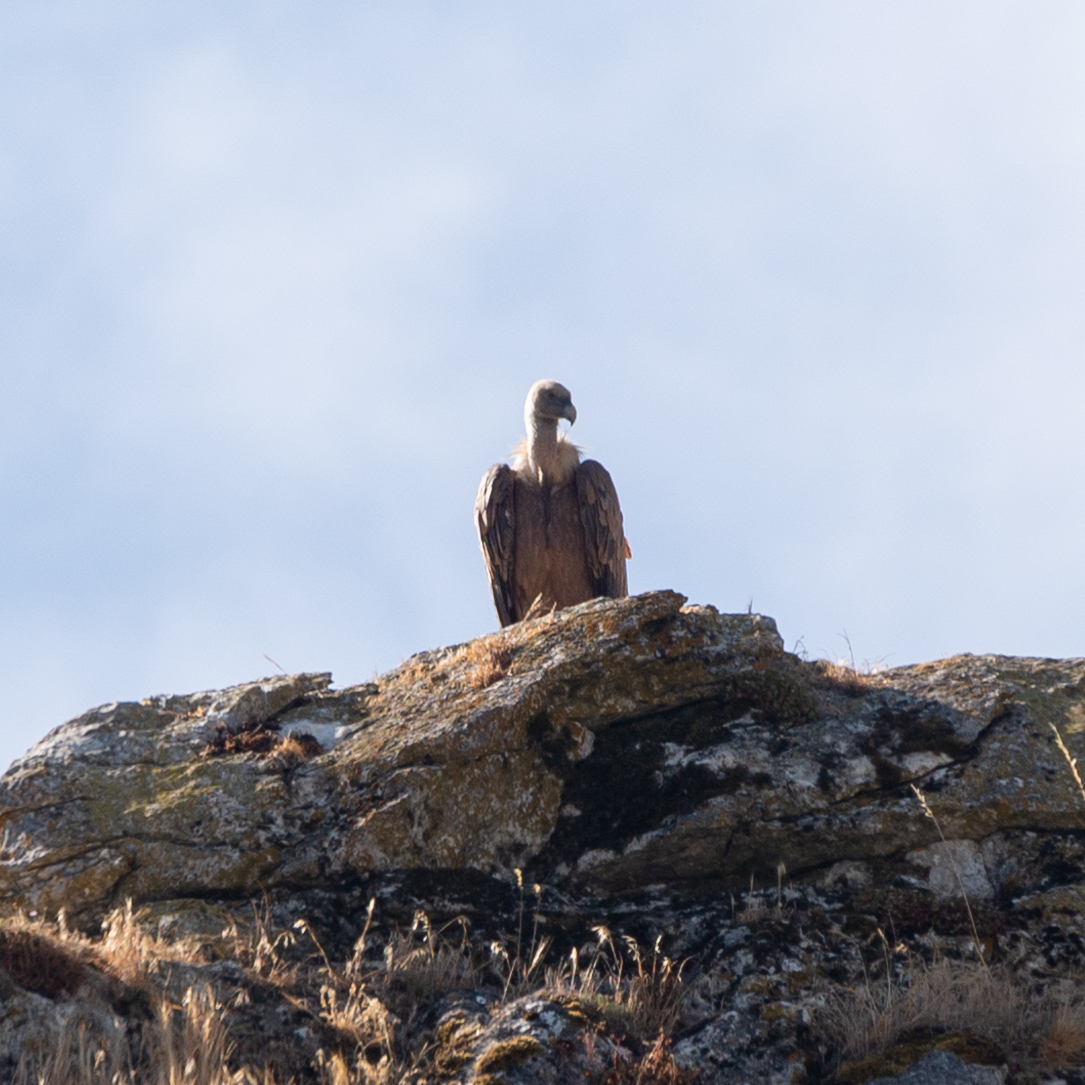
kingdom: Animalia
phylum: Chordata
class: Aves
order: Accipitriformes
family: Accipitridae
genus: Gyps
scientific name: Gyps fulvus
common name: Griffon vulture
